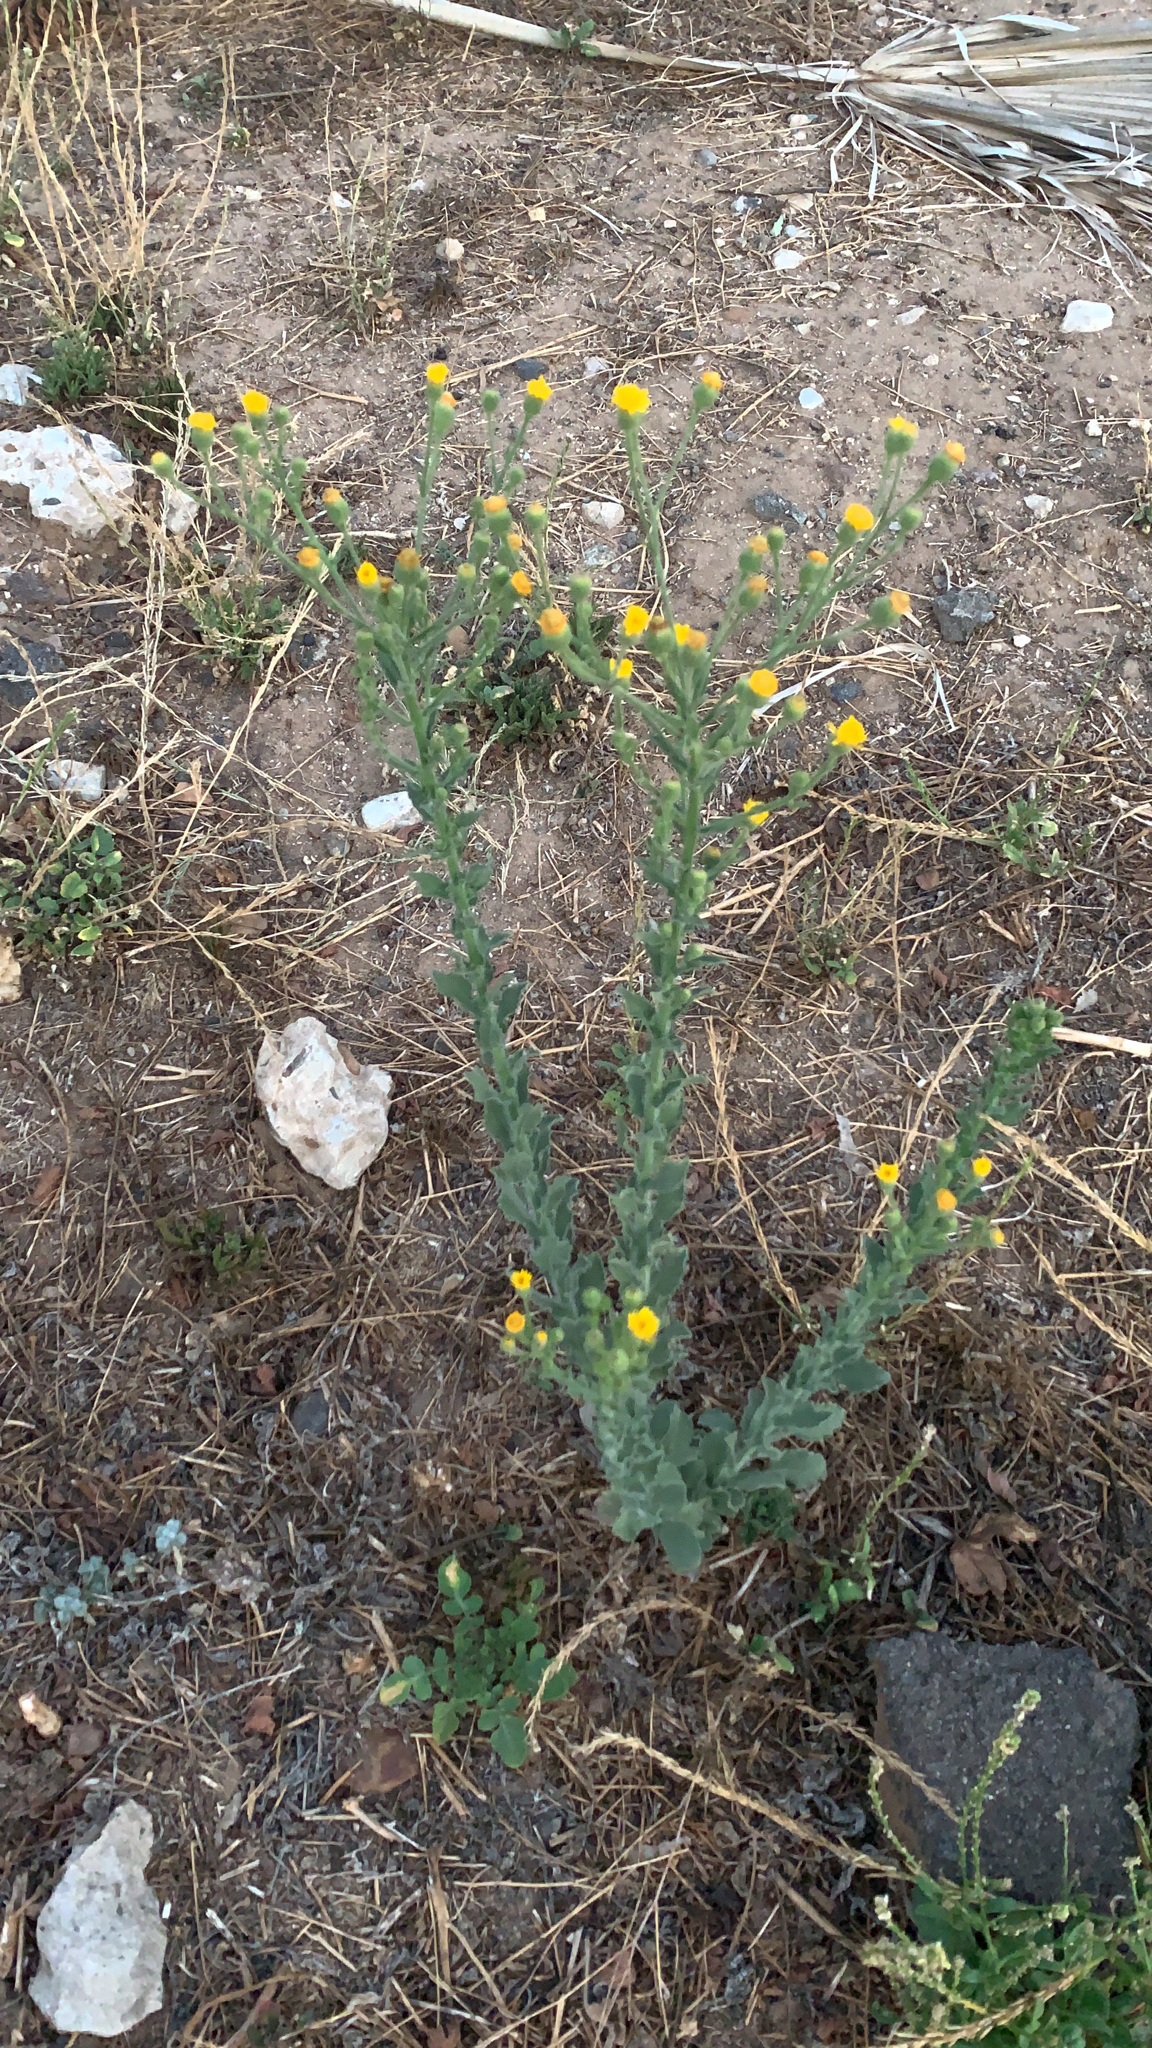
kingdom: Plantae
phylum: Tracheophyta
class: Magnoliopsida
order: Asterales
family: Asteraceae
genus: Heterotheca
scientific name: Heterotheca grandiflora
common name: Telegraphweed
